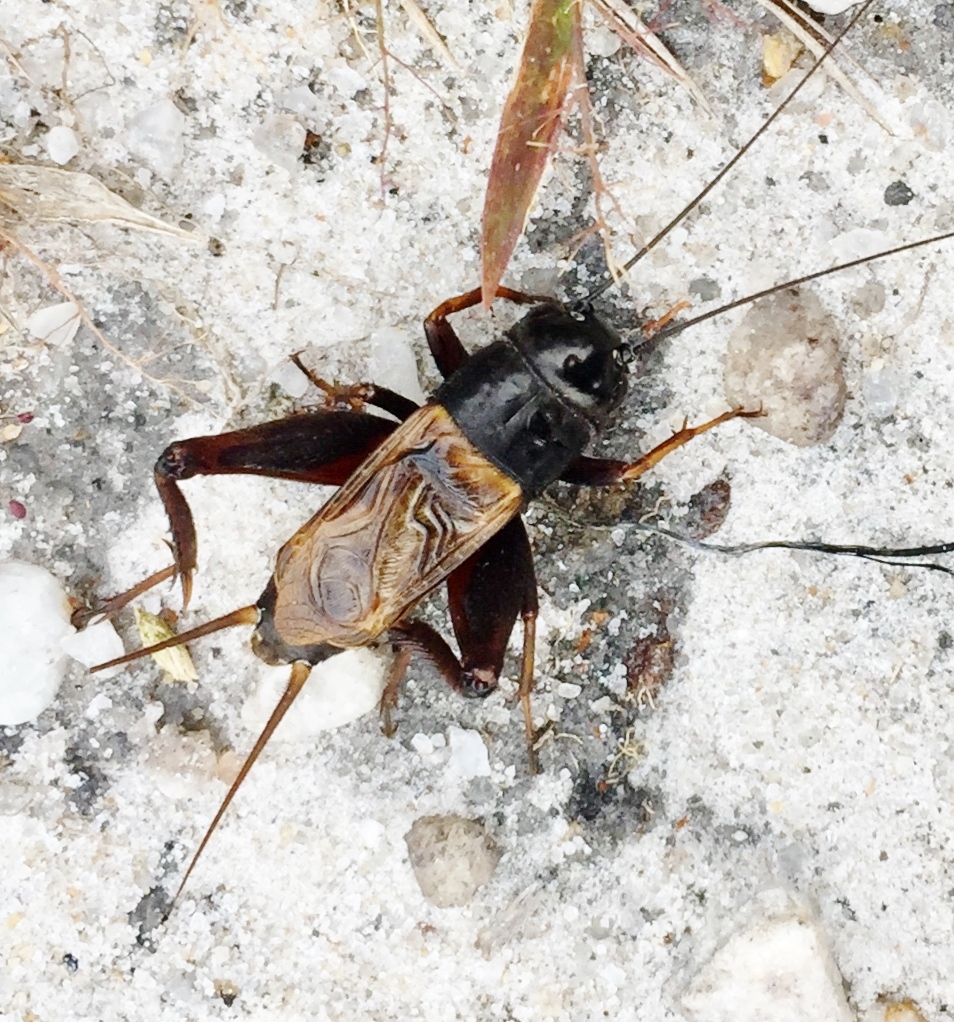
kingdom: Animalia
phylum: Arthropoda
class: Insecta
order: Orthoptera
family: Gryllidae
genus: Gryllus
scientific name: Gryllus firmus
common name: Sand field cricket
